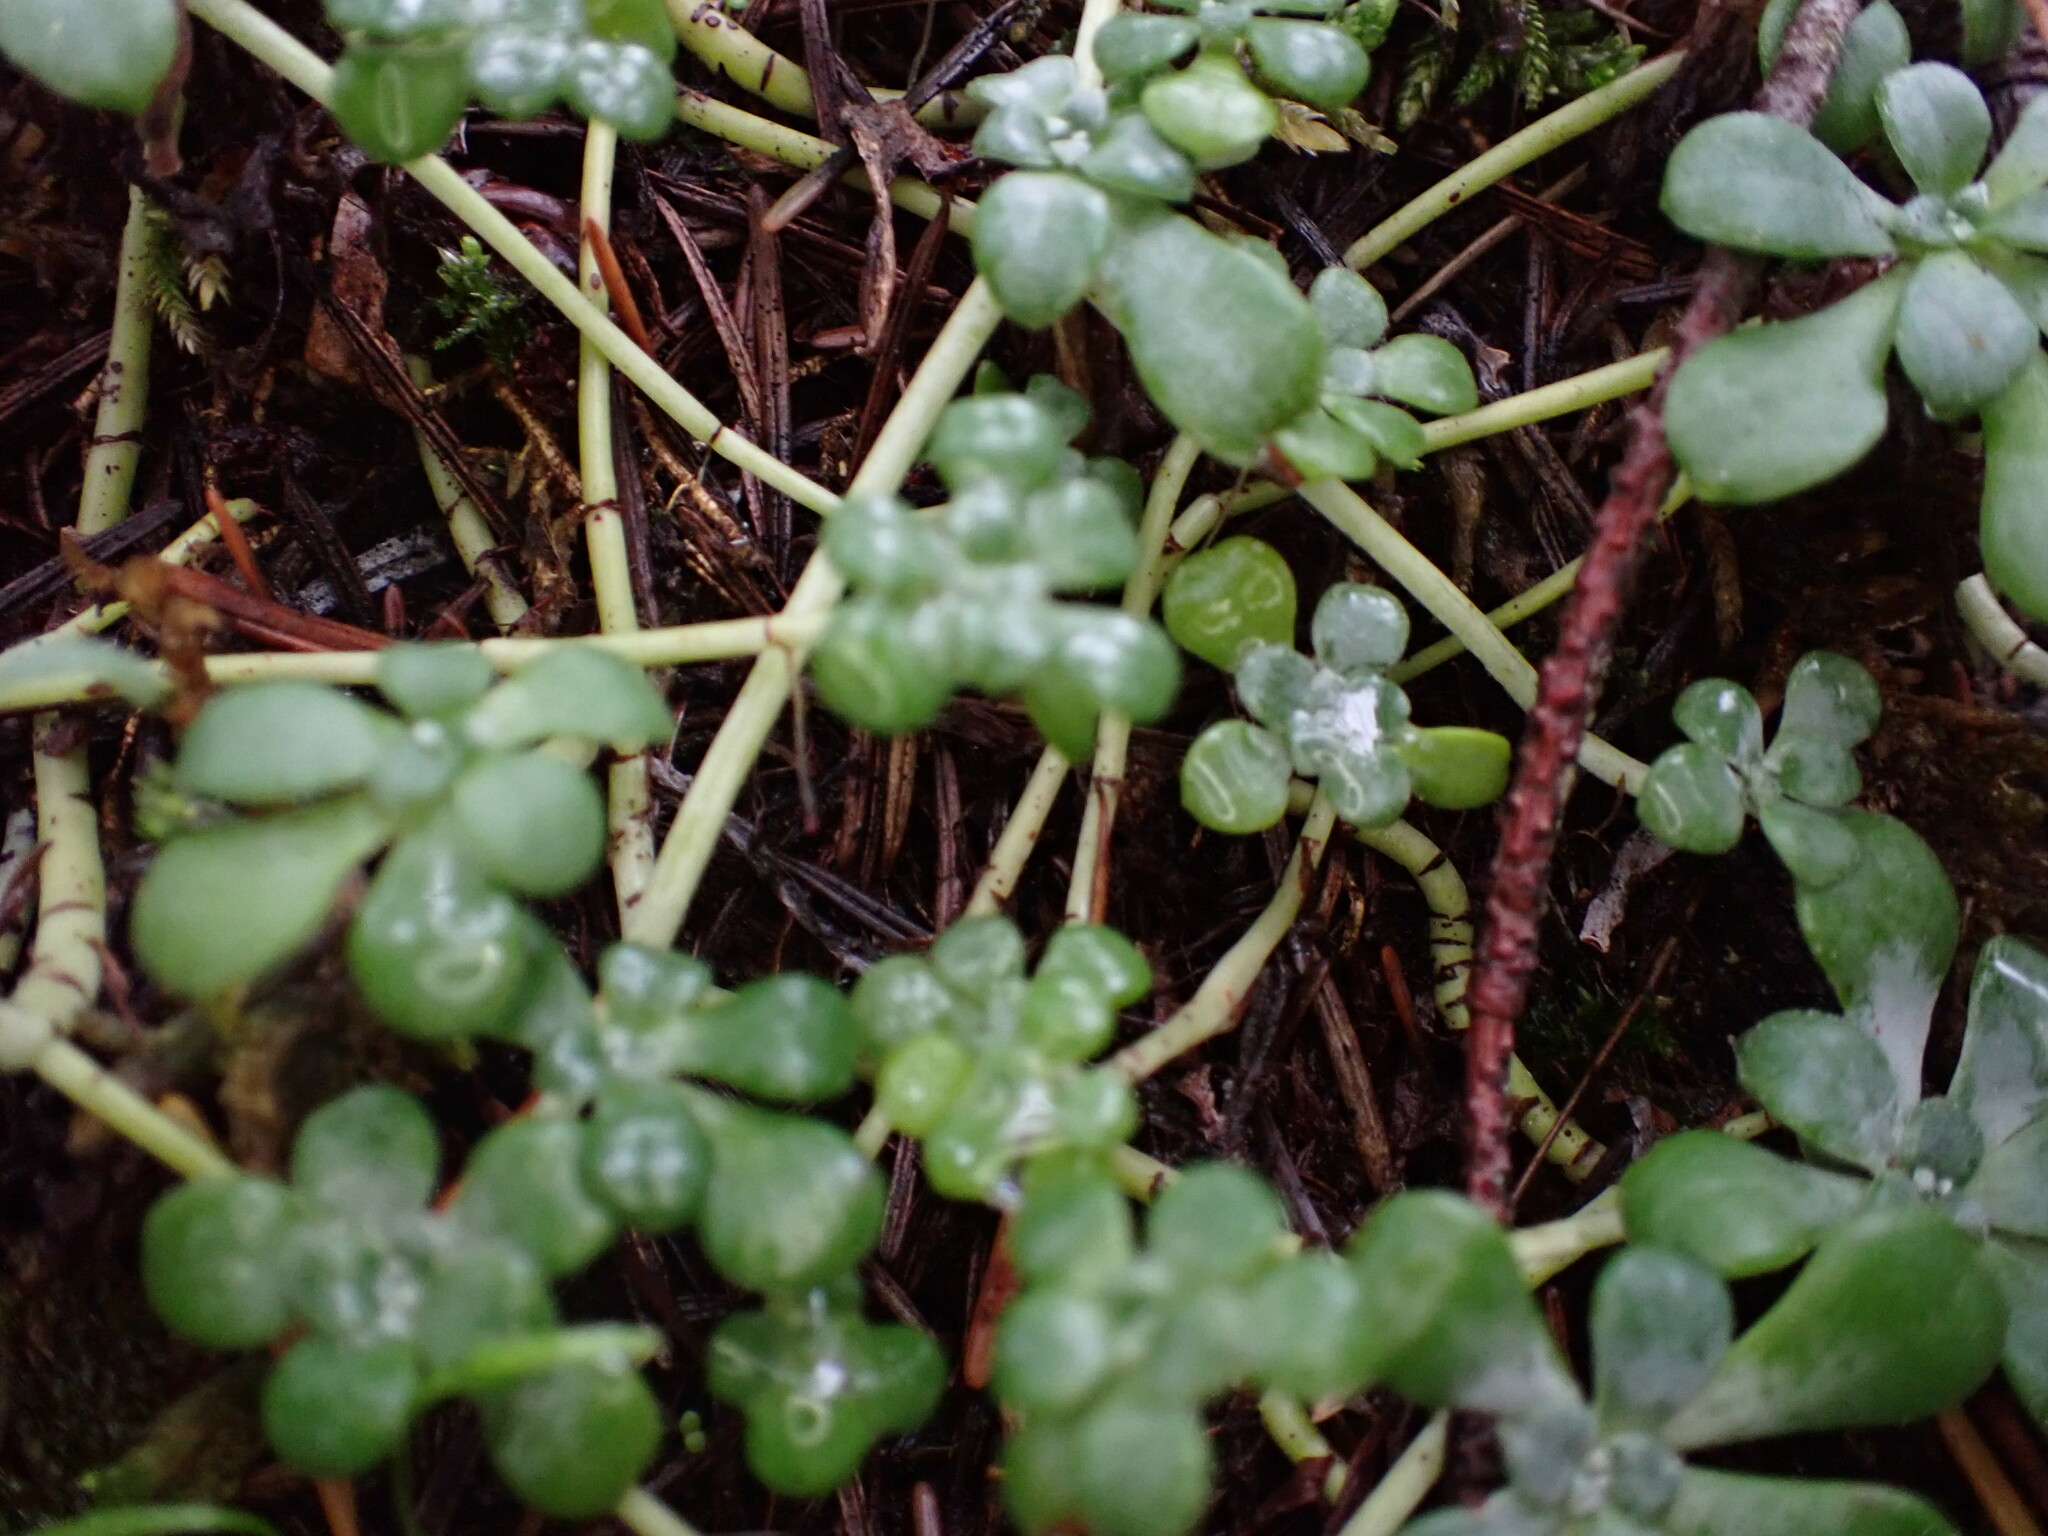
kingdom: Plantae
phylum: Tracheophyta
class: Magnoliopsida
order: Saxifragales
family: Crassulaceae
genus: Sedum
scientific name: Sedum spathulifolium
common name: Colorado stonecrop
